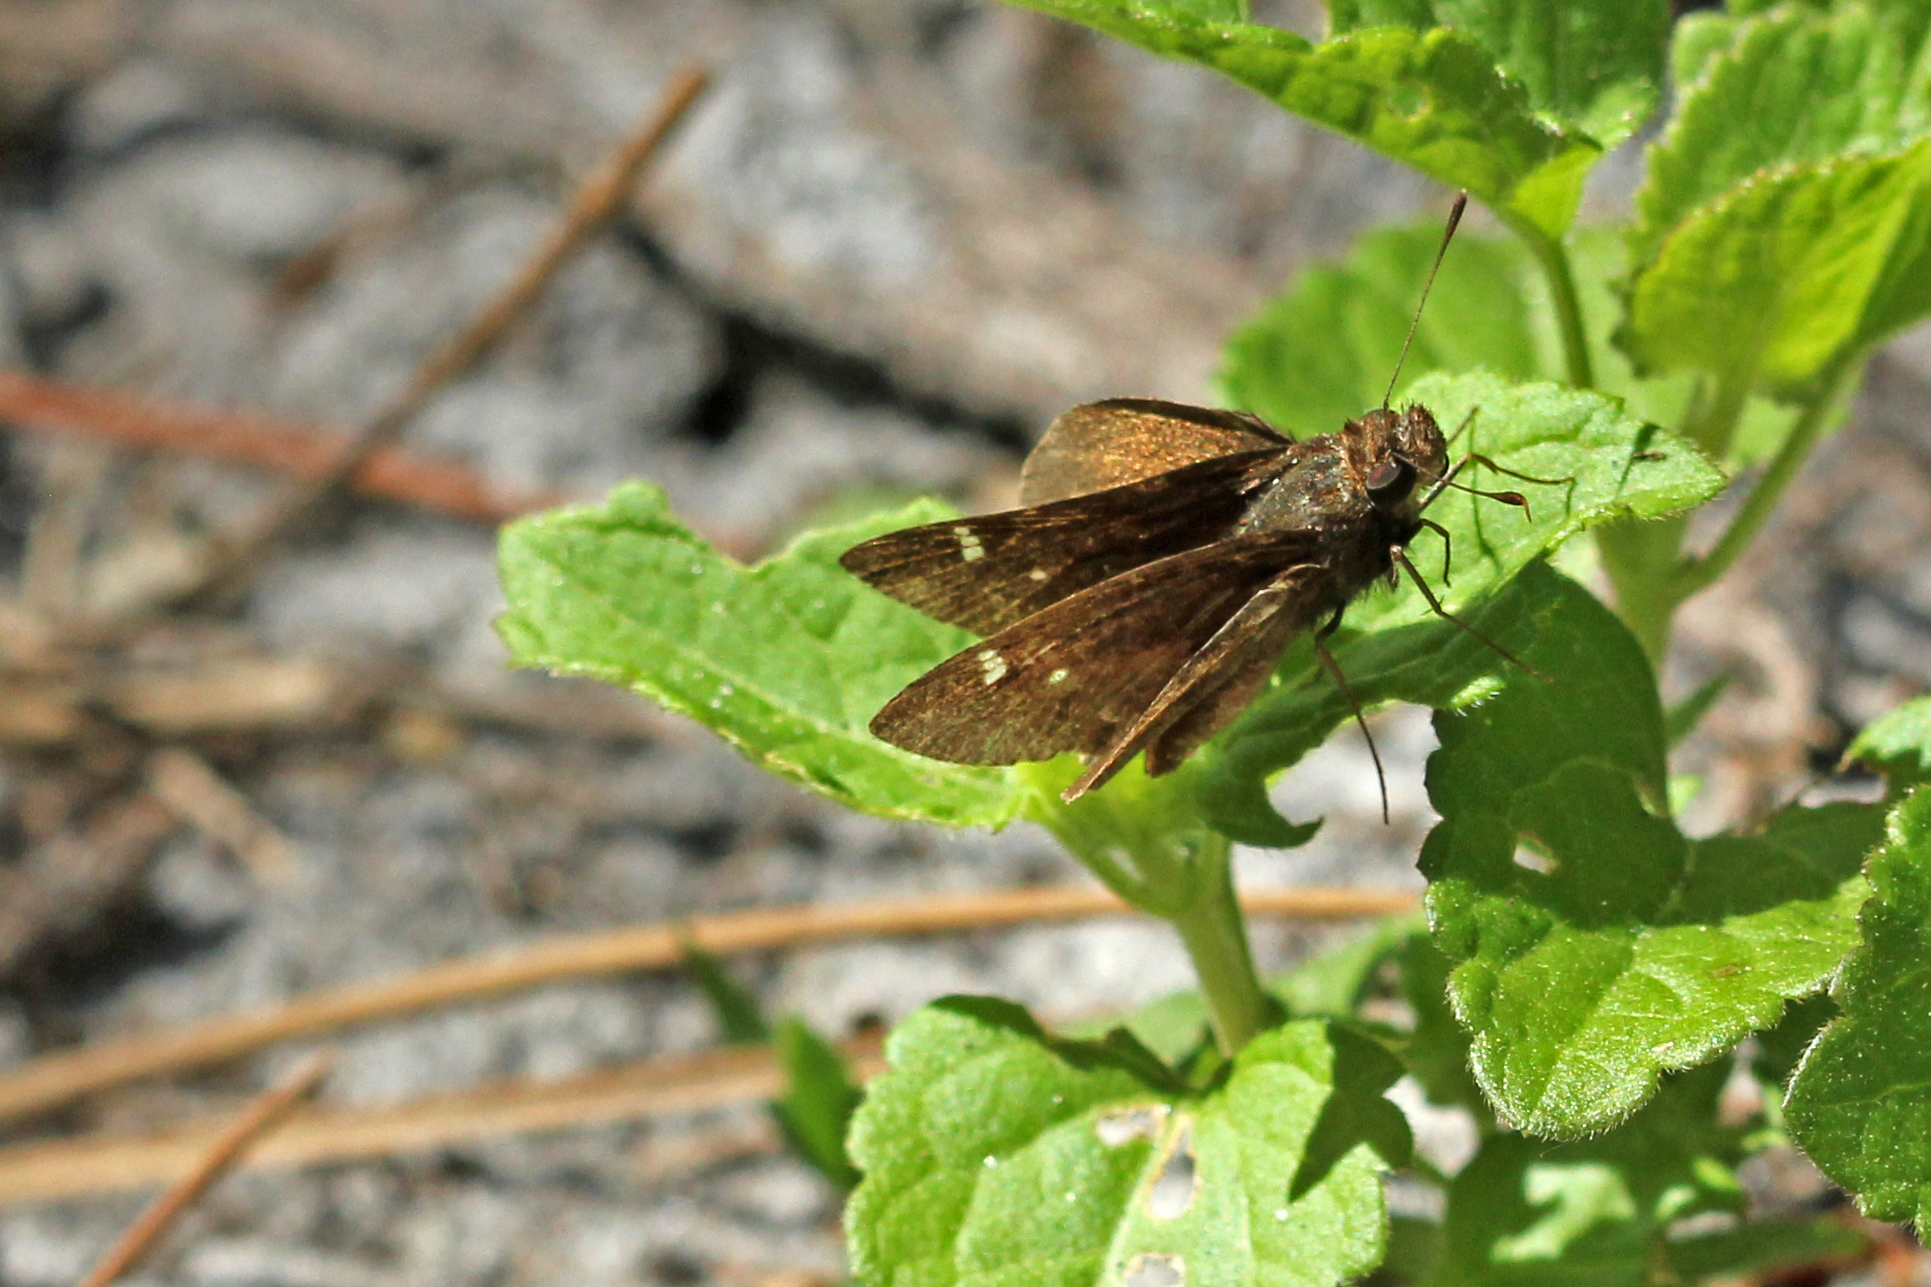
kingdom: Animalia
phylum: Arthropoda
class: Insecta
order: Lepidoptera
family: Hesperiidae
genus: Lerema
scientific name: Lerema accius
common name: Clouded skipper
